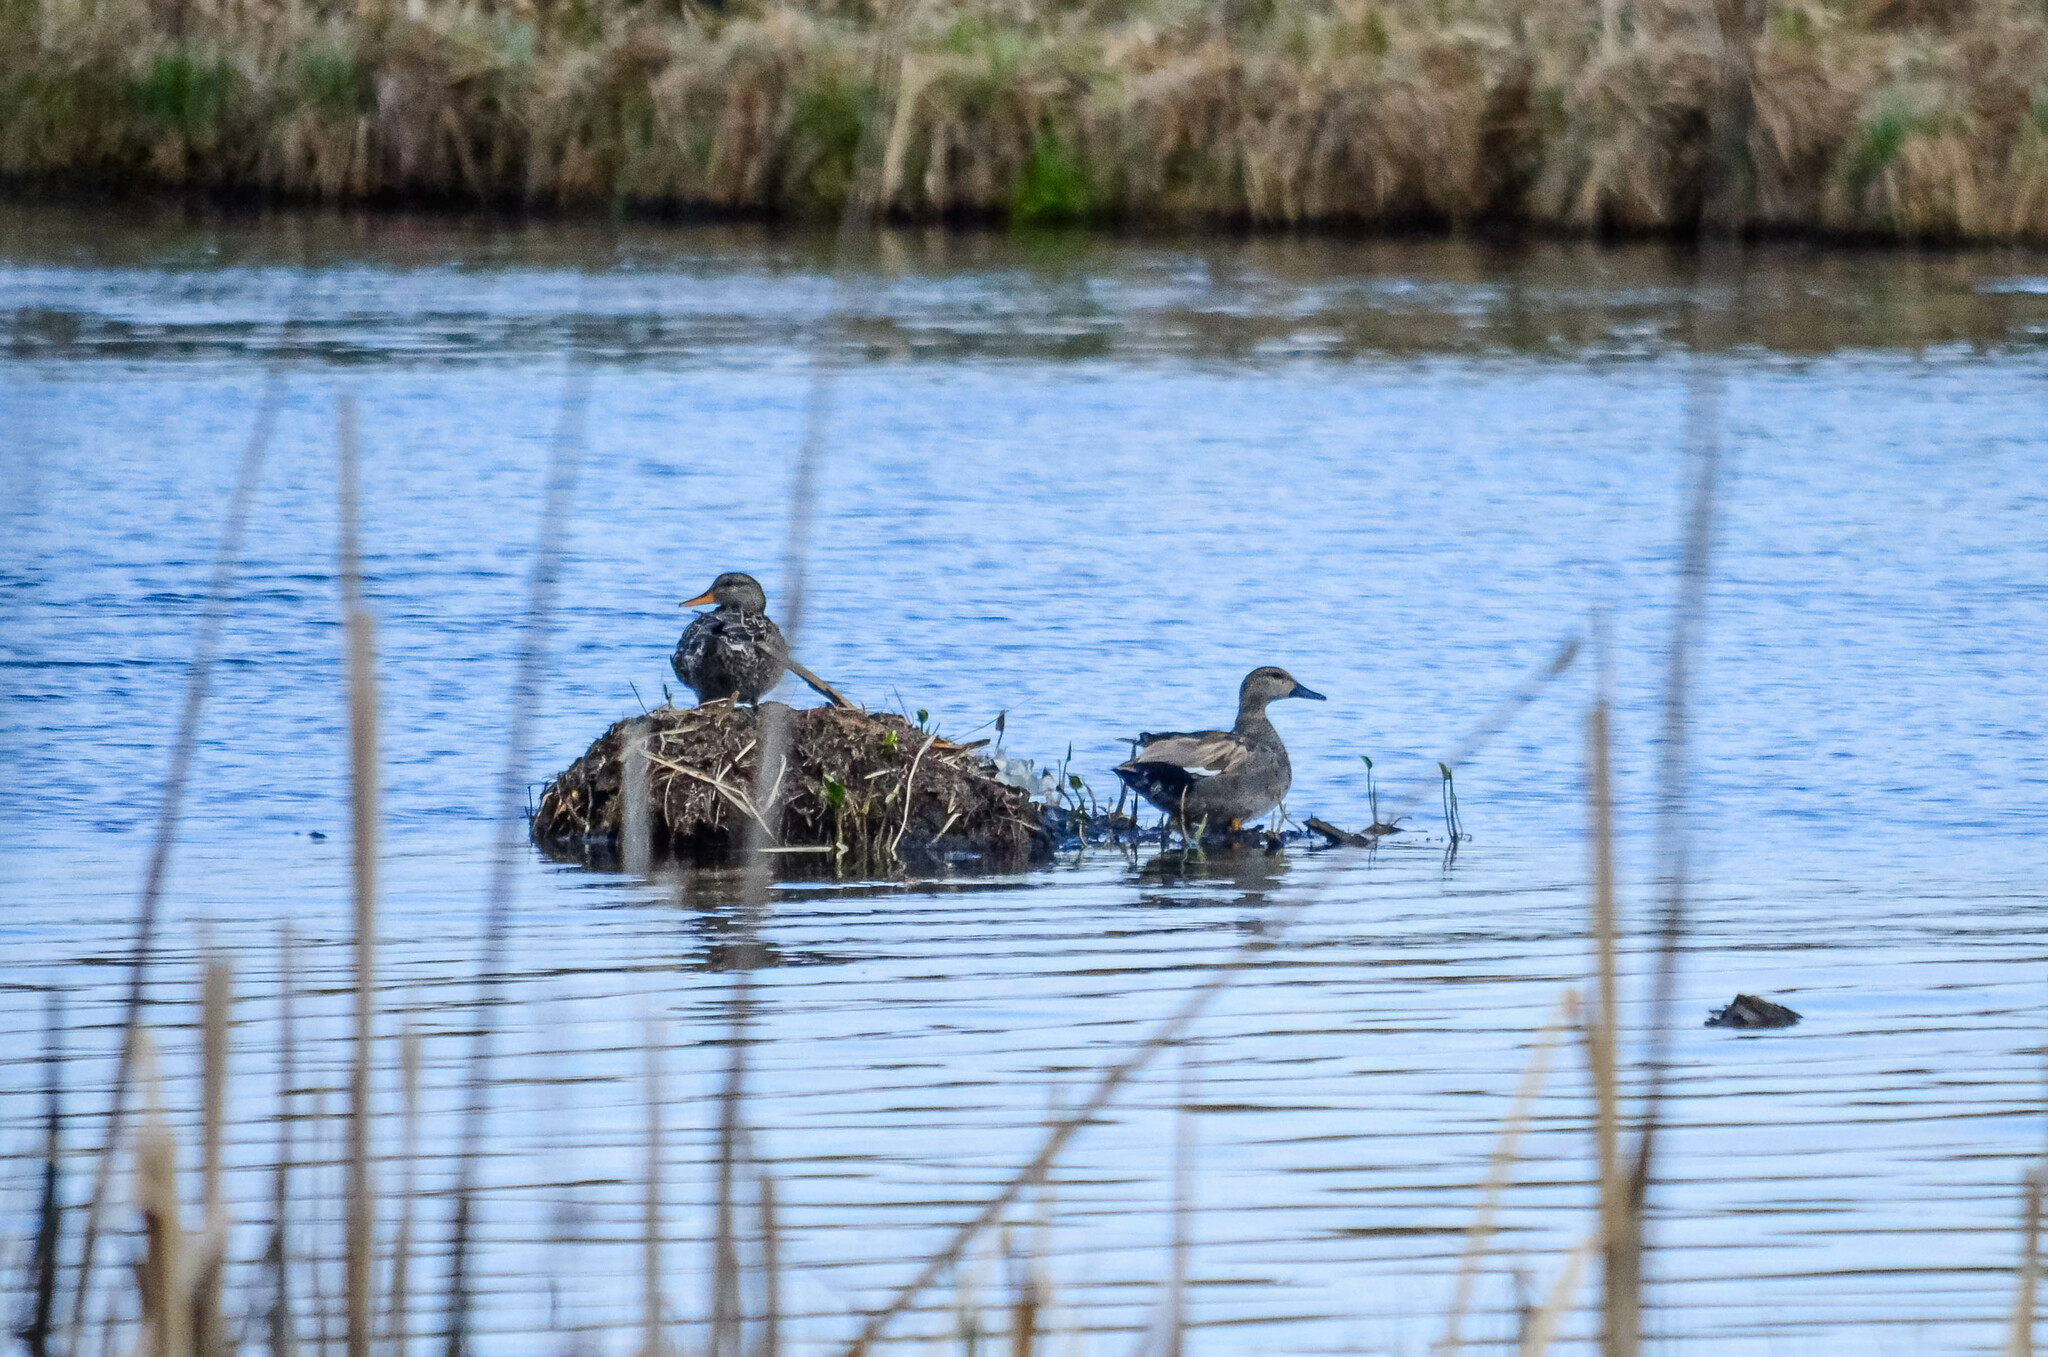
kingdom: Animalia
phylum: Chordata
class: Aves
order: Anseriformes
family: Anatidae
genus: Mareca
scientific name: Mareca strepera
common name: Gadwall
